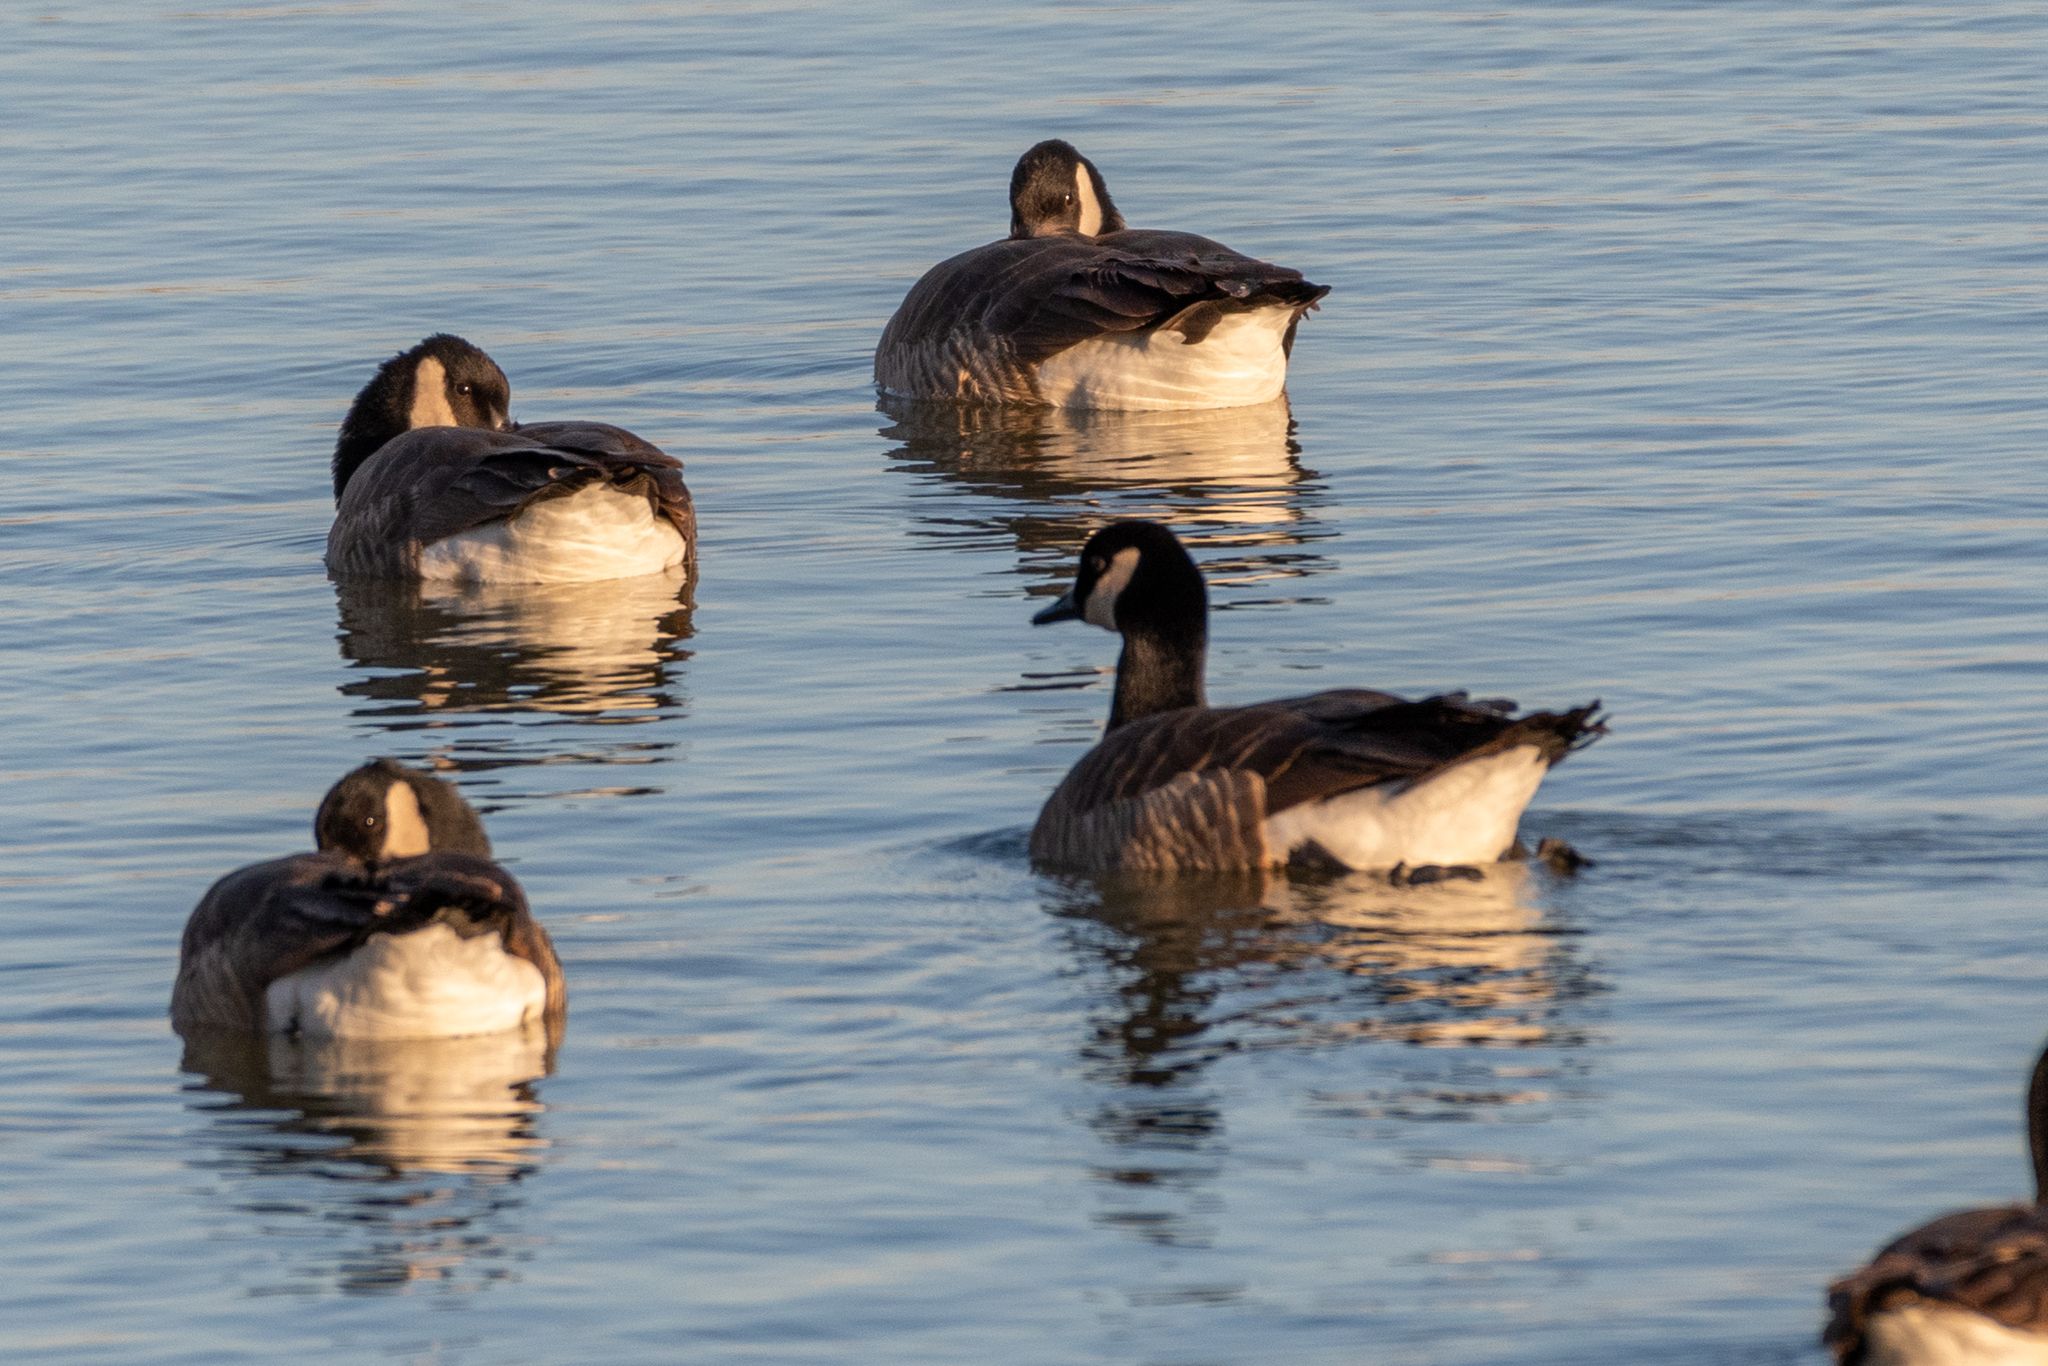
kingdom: Animalia
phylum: Chordata
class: Aves
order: Anseriformes
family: Anatidae
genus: Branta
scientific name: Branta canadensis
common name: Canada goose
